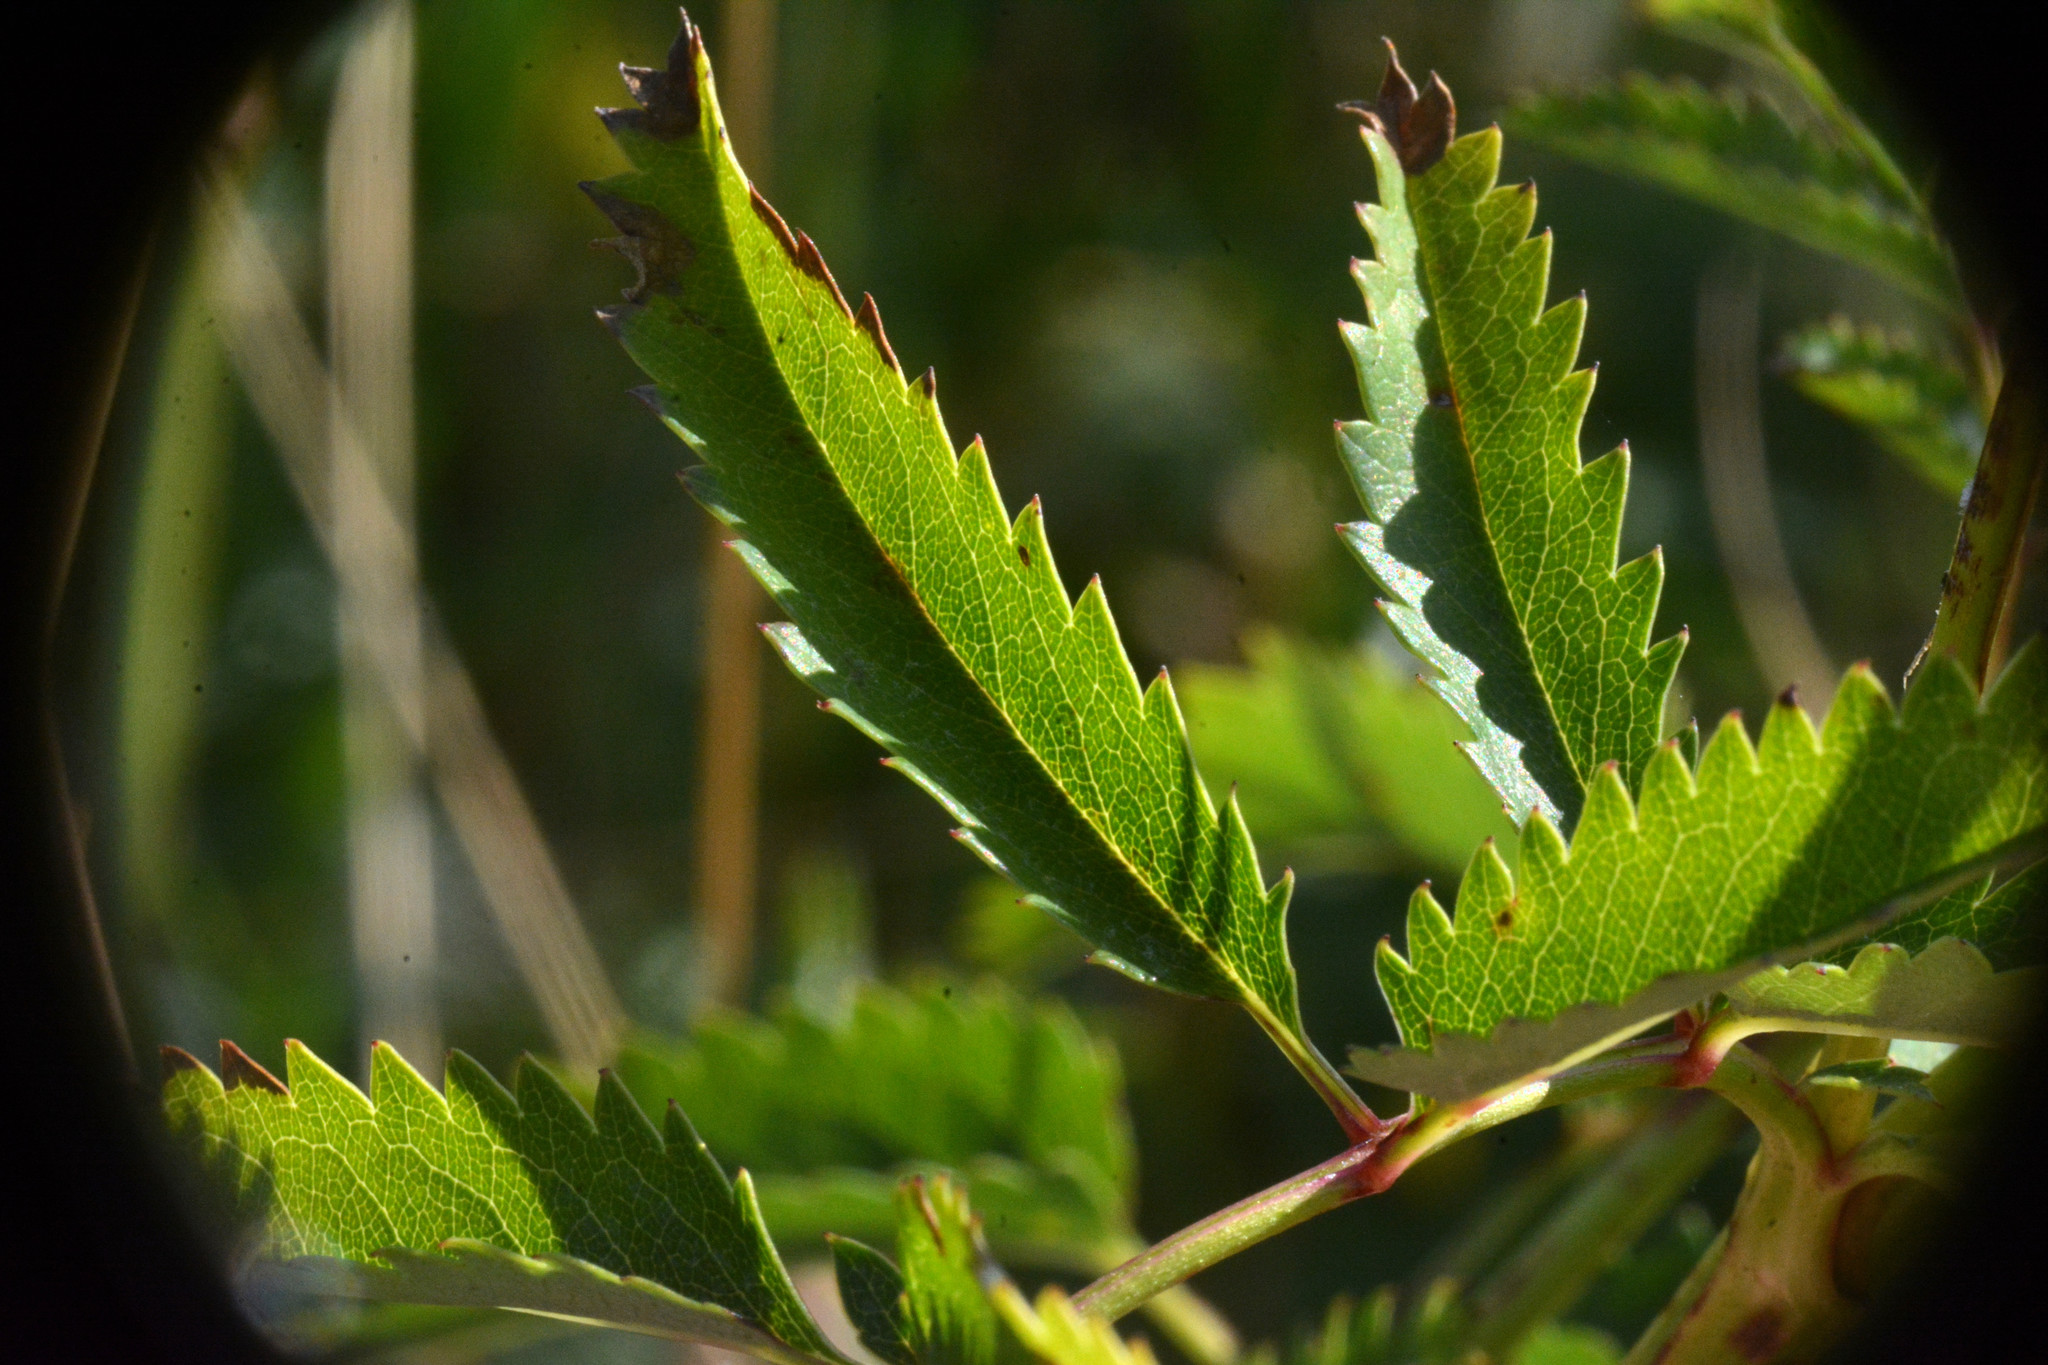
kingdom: Plantae
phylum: Tracheophyta
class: Magnoliopsida
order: Rosales
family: Rosaceae
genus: Sanguisorba
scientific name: Sanguisorba officinalis
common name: Great burnet
